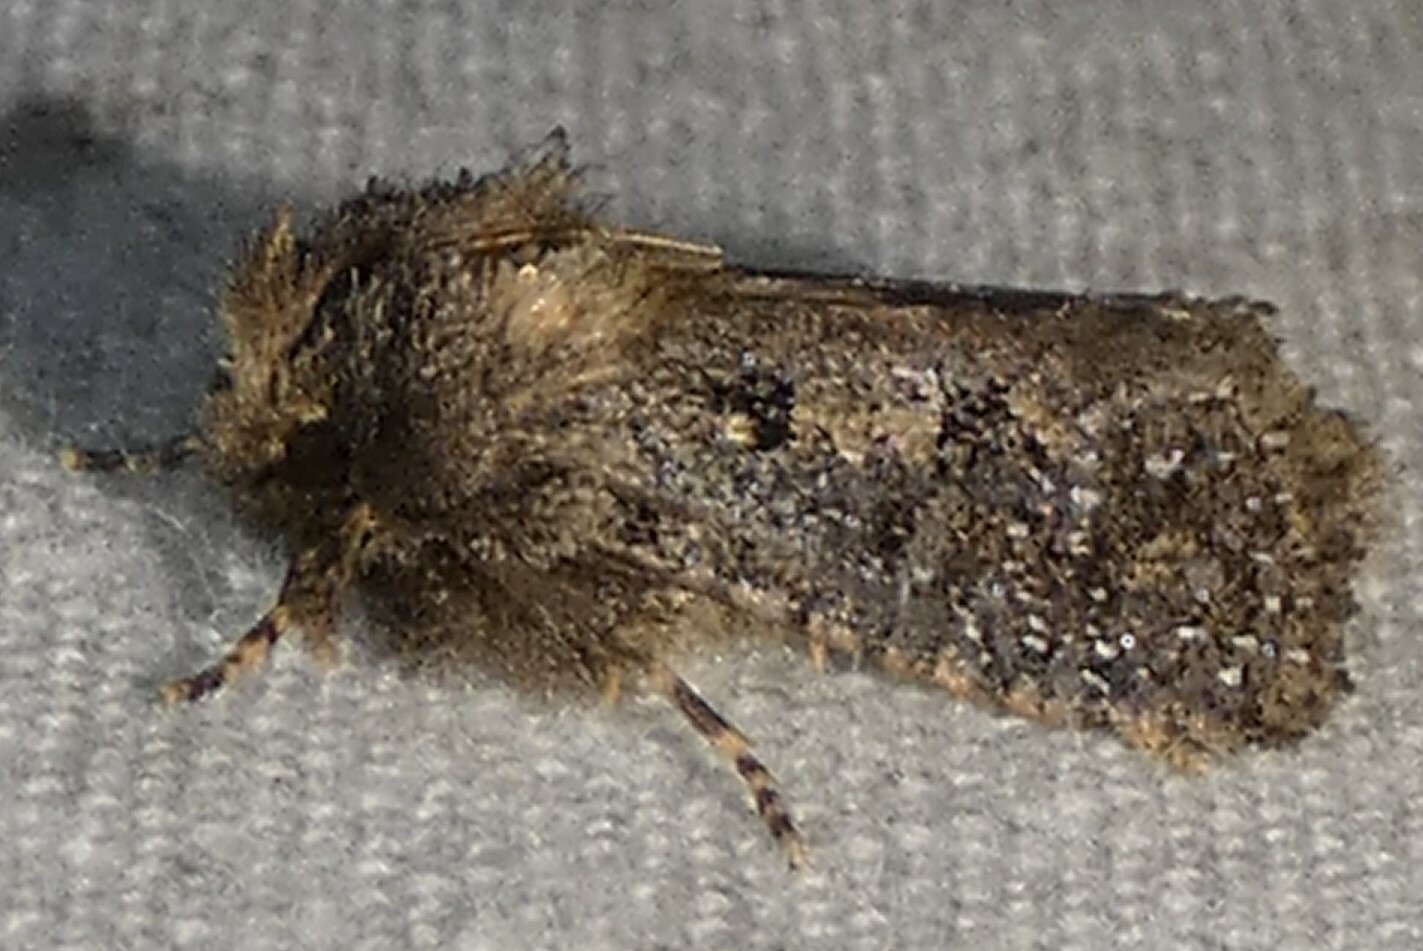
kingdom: Animalia
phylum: Arthropoda
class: Insecta
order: Lepidoptera
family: Tineidae
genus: Acrolophus
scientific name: Acrolophus arcanella
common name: Arcane grass tubeworm moth
